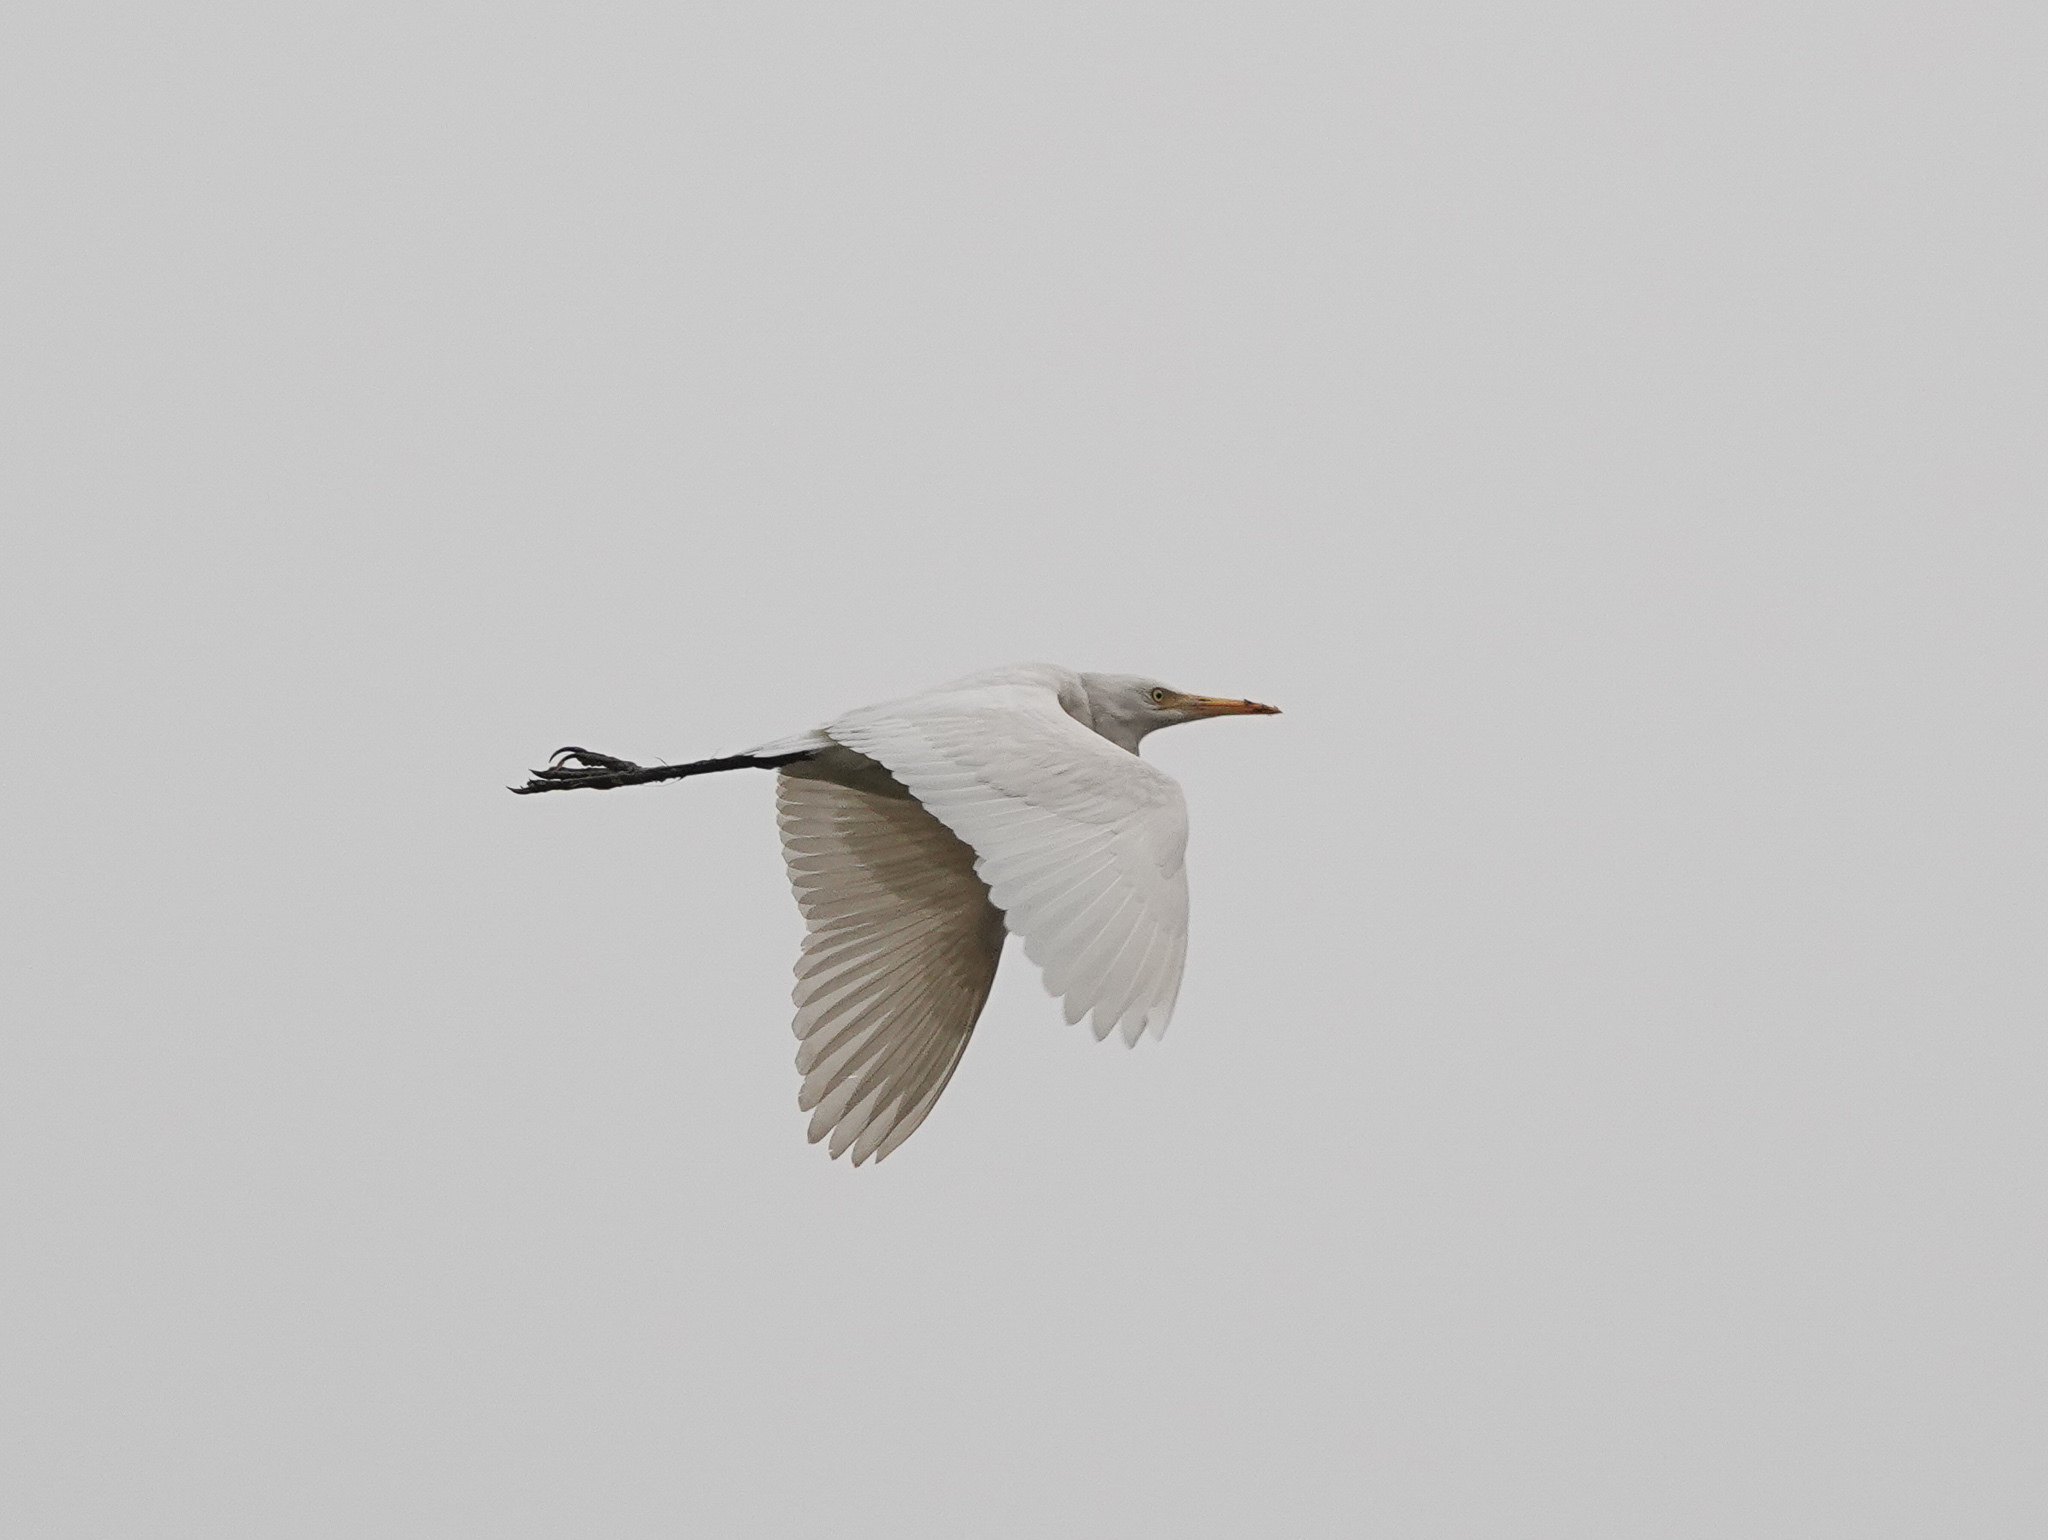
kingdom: Animalia
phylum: Chordata
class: Aves
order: Pelecaniformes
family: Ardeidae
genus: Bubulcus
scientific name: Bubulcus coromandus
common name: Eastern cattle egret
